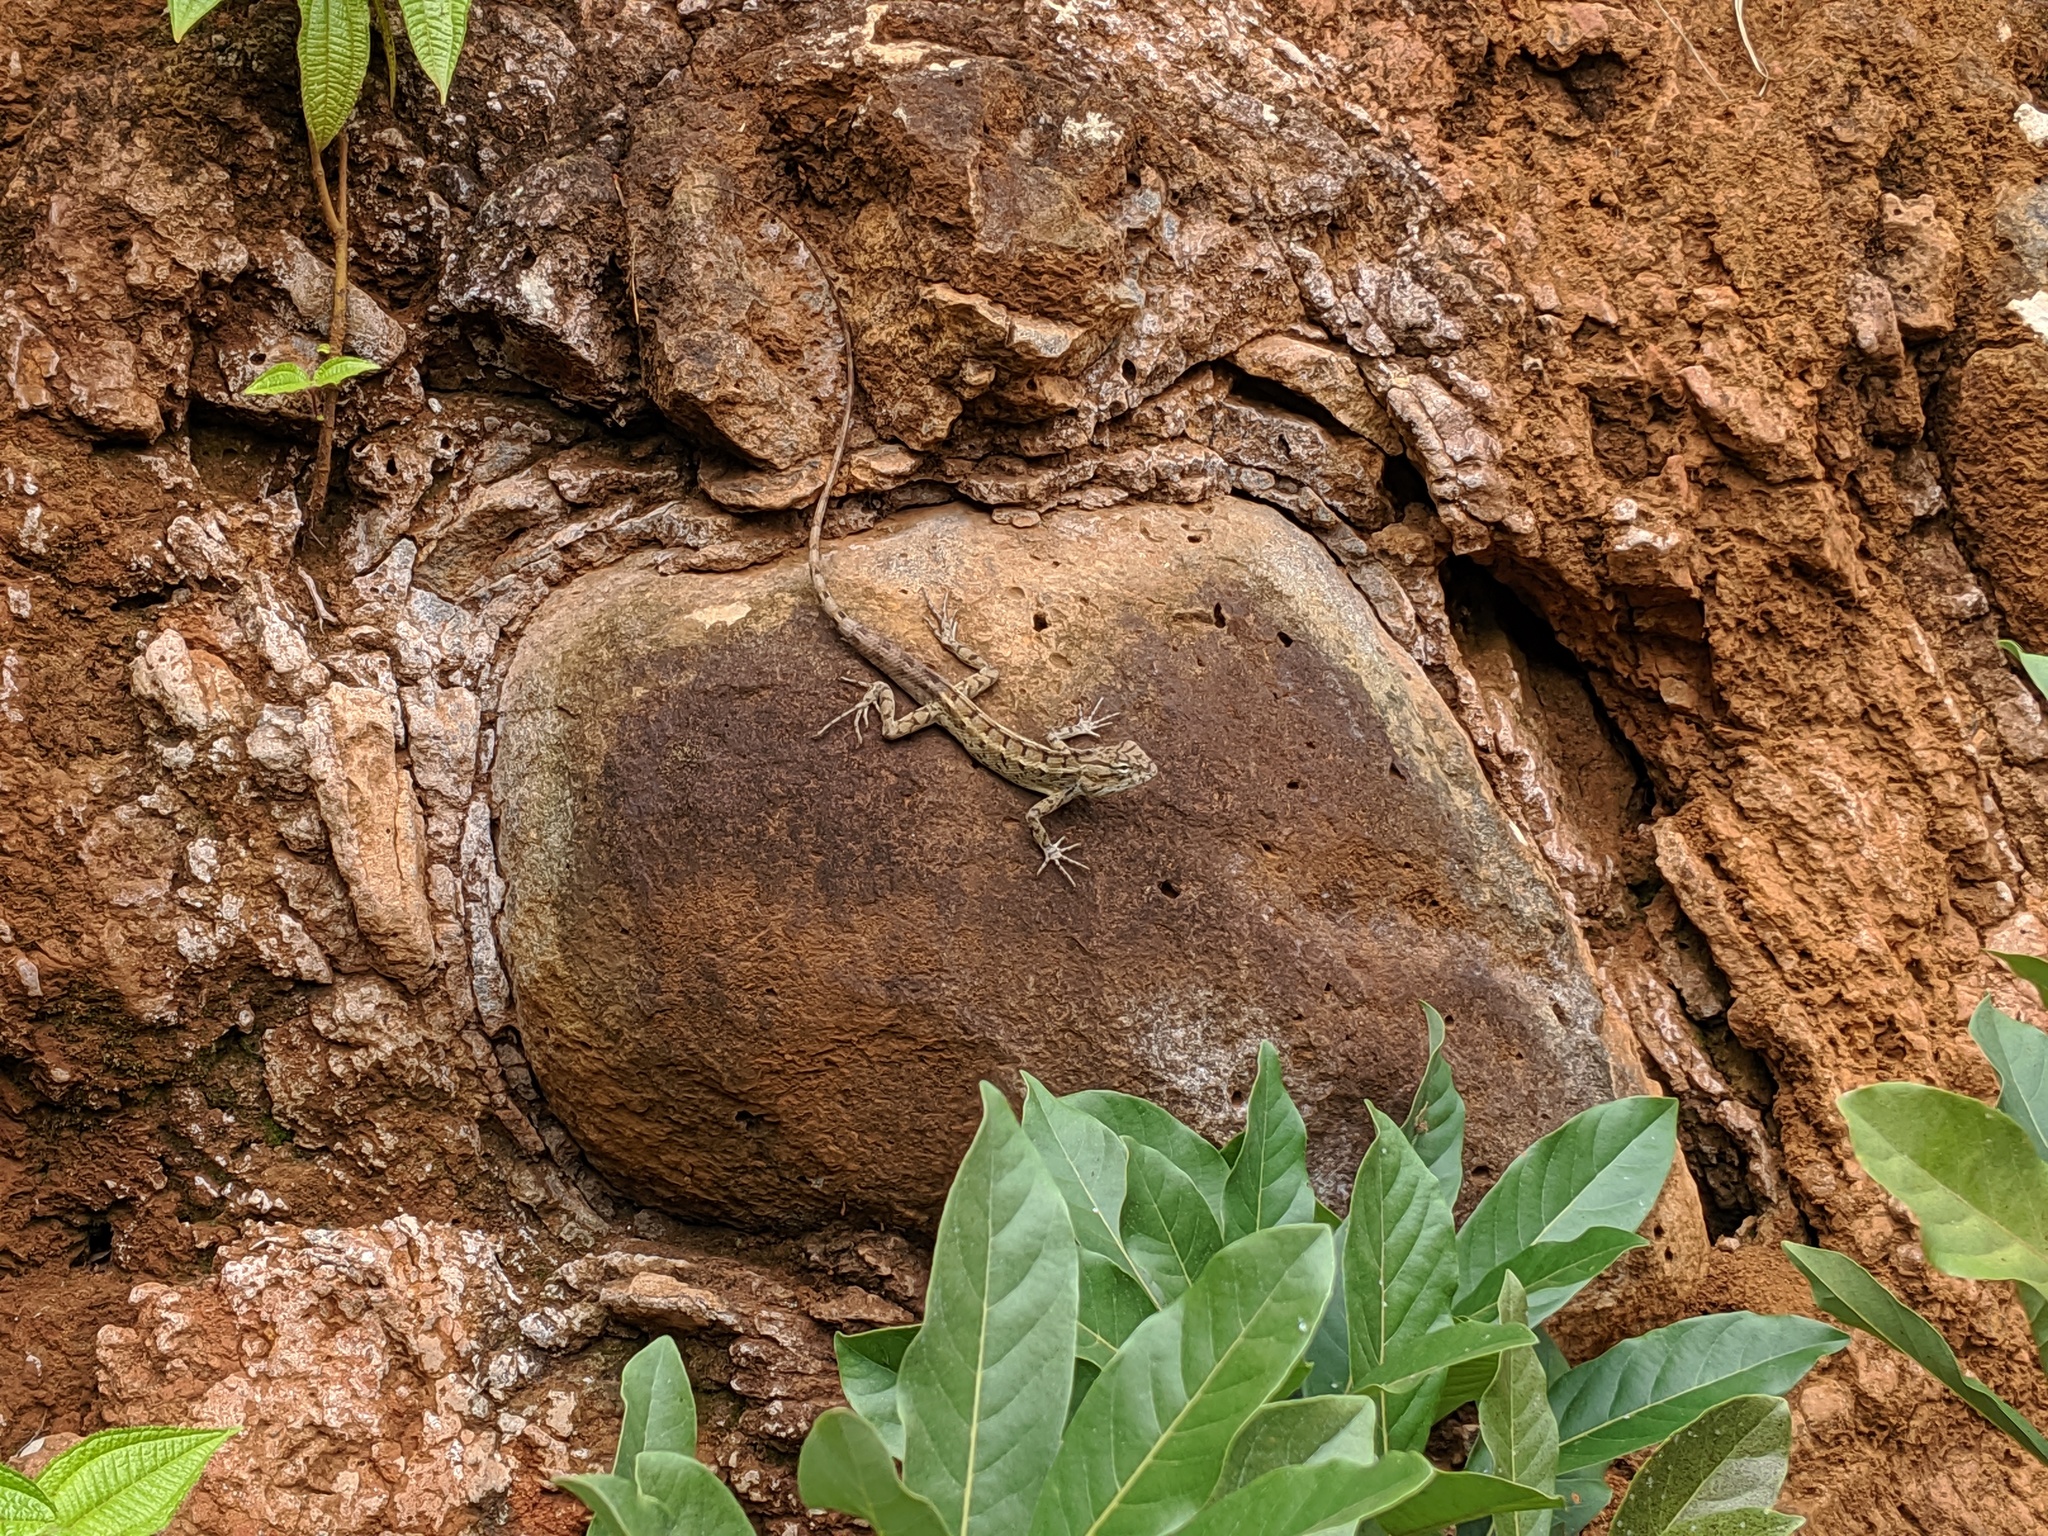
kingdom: Animalia
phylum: Chordata
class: Squamata
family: Agamidae
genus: Calotes
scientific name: Calotes versicolor
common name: Oriental garden lizard
